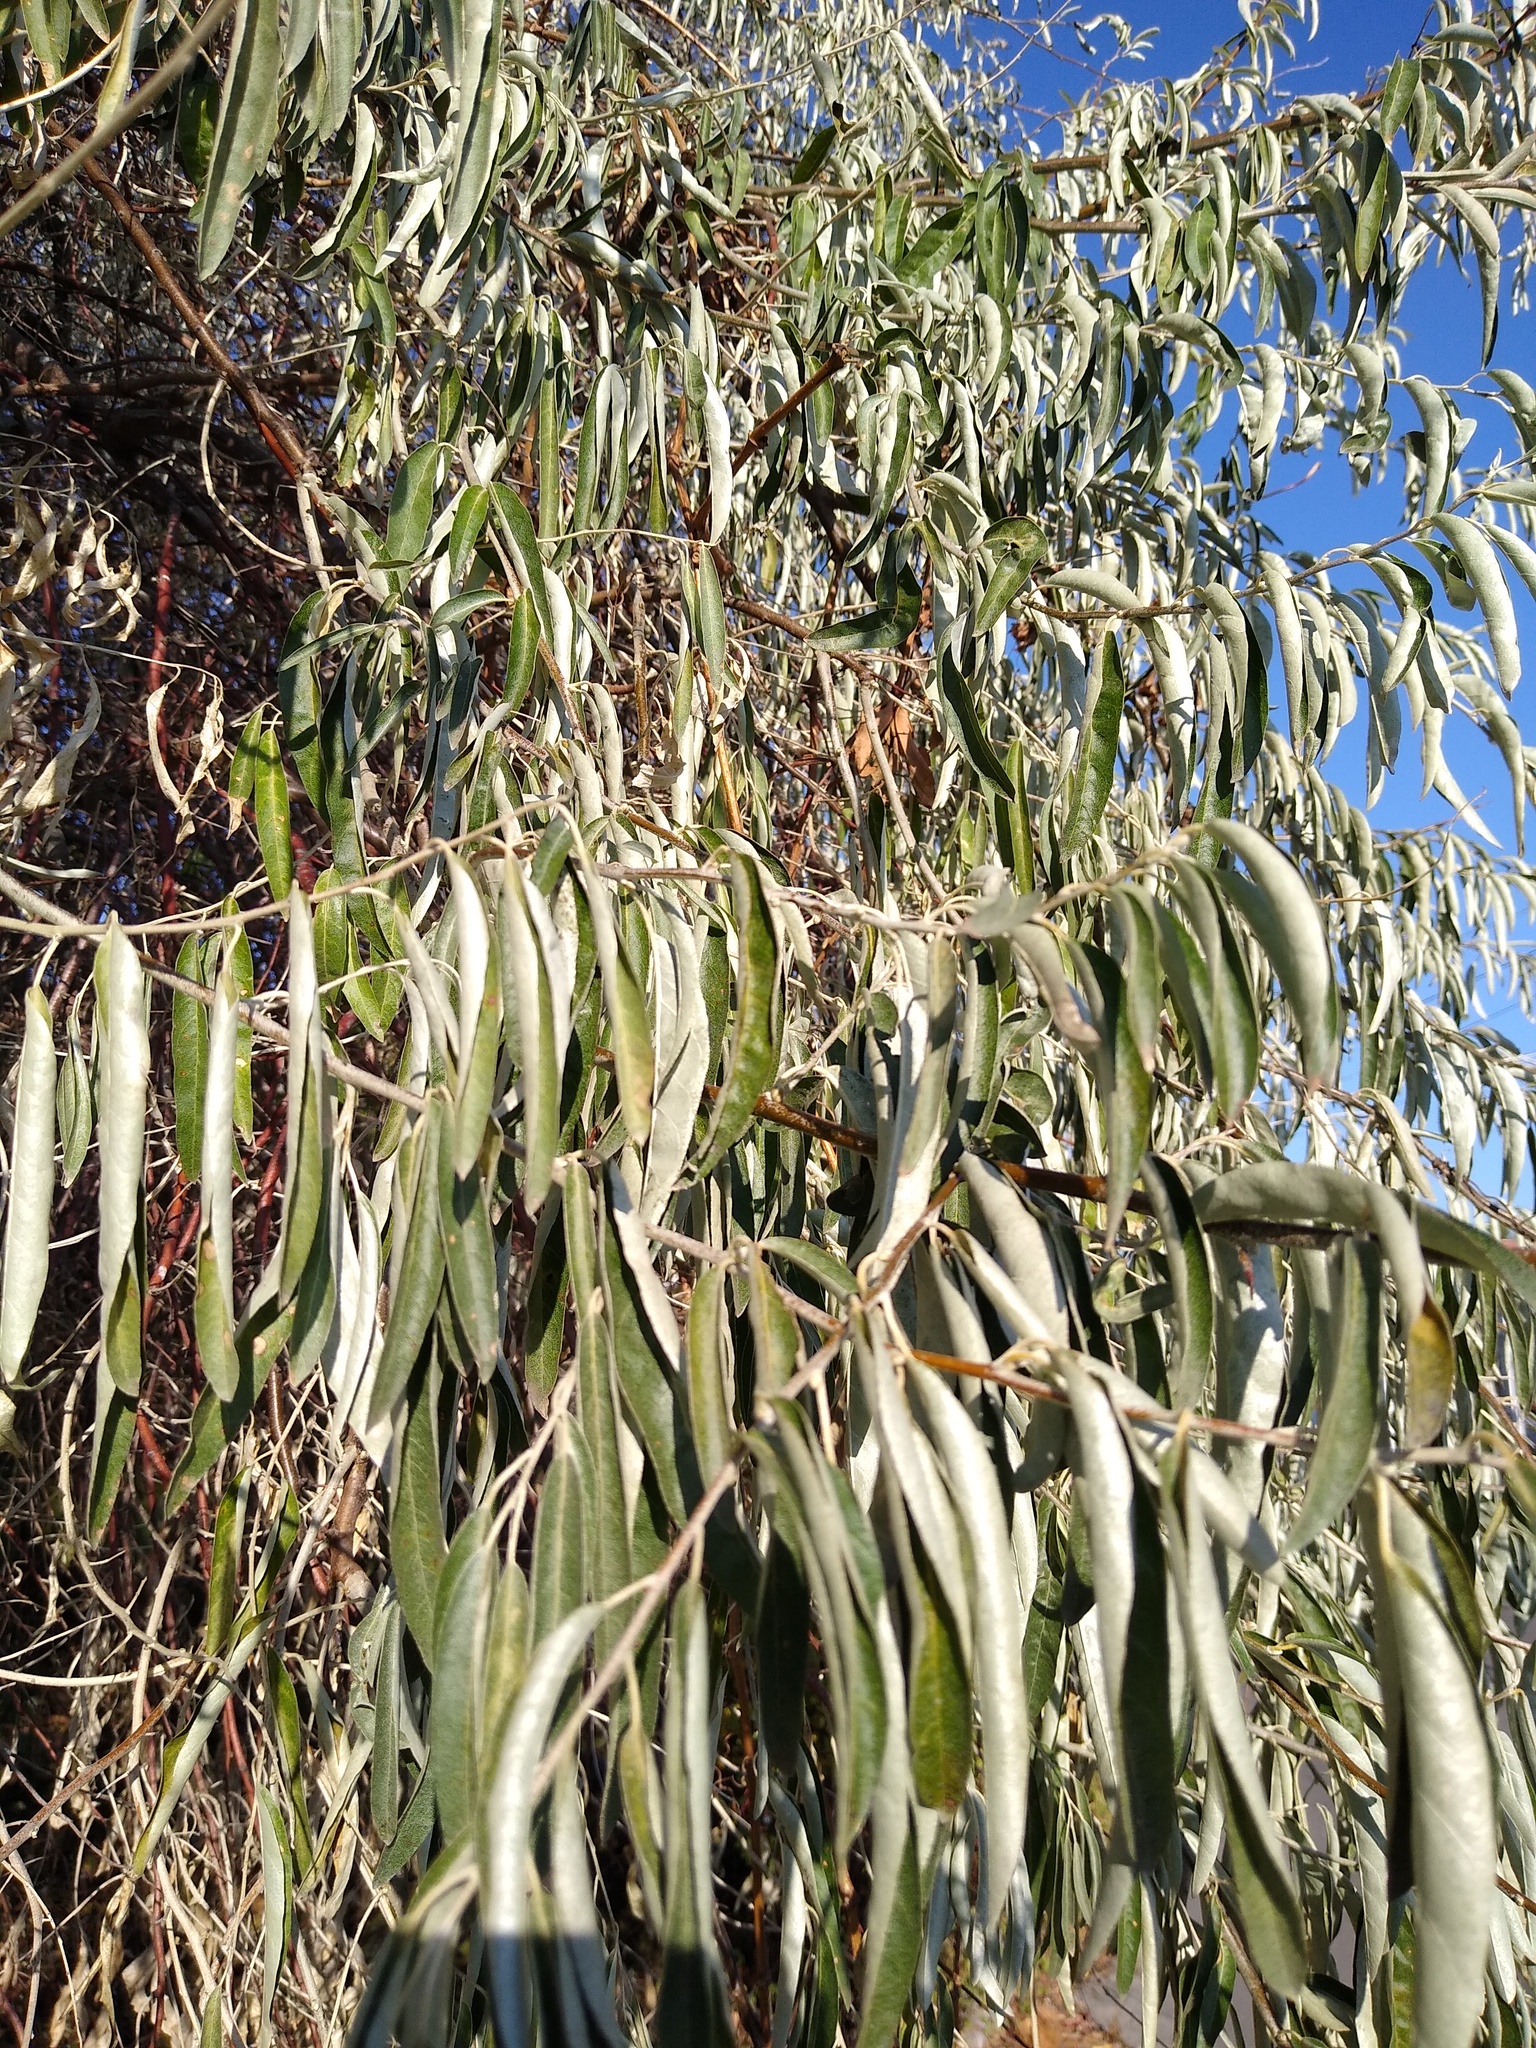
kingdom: Plantae
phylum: Tracheophyta
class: Magnoliopsida
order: Rosales
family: Elaeagnaceae
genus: Elaeagnus
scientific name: Elaeagnus angustifolia
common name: Russian olive
